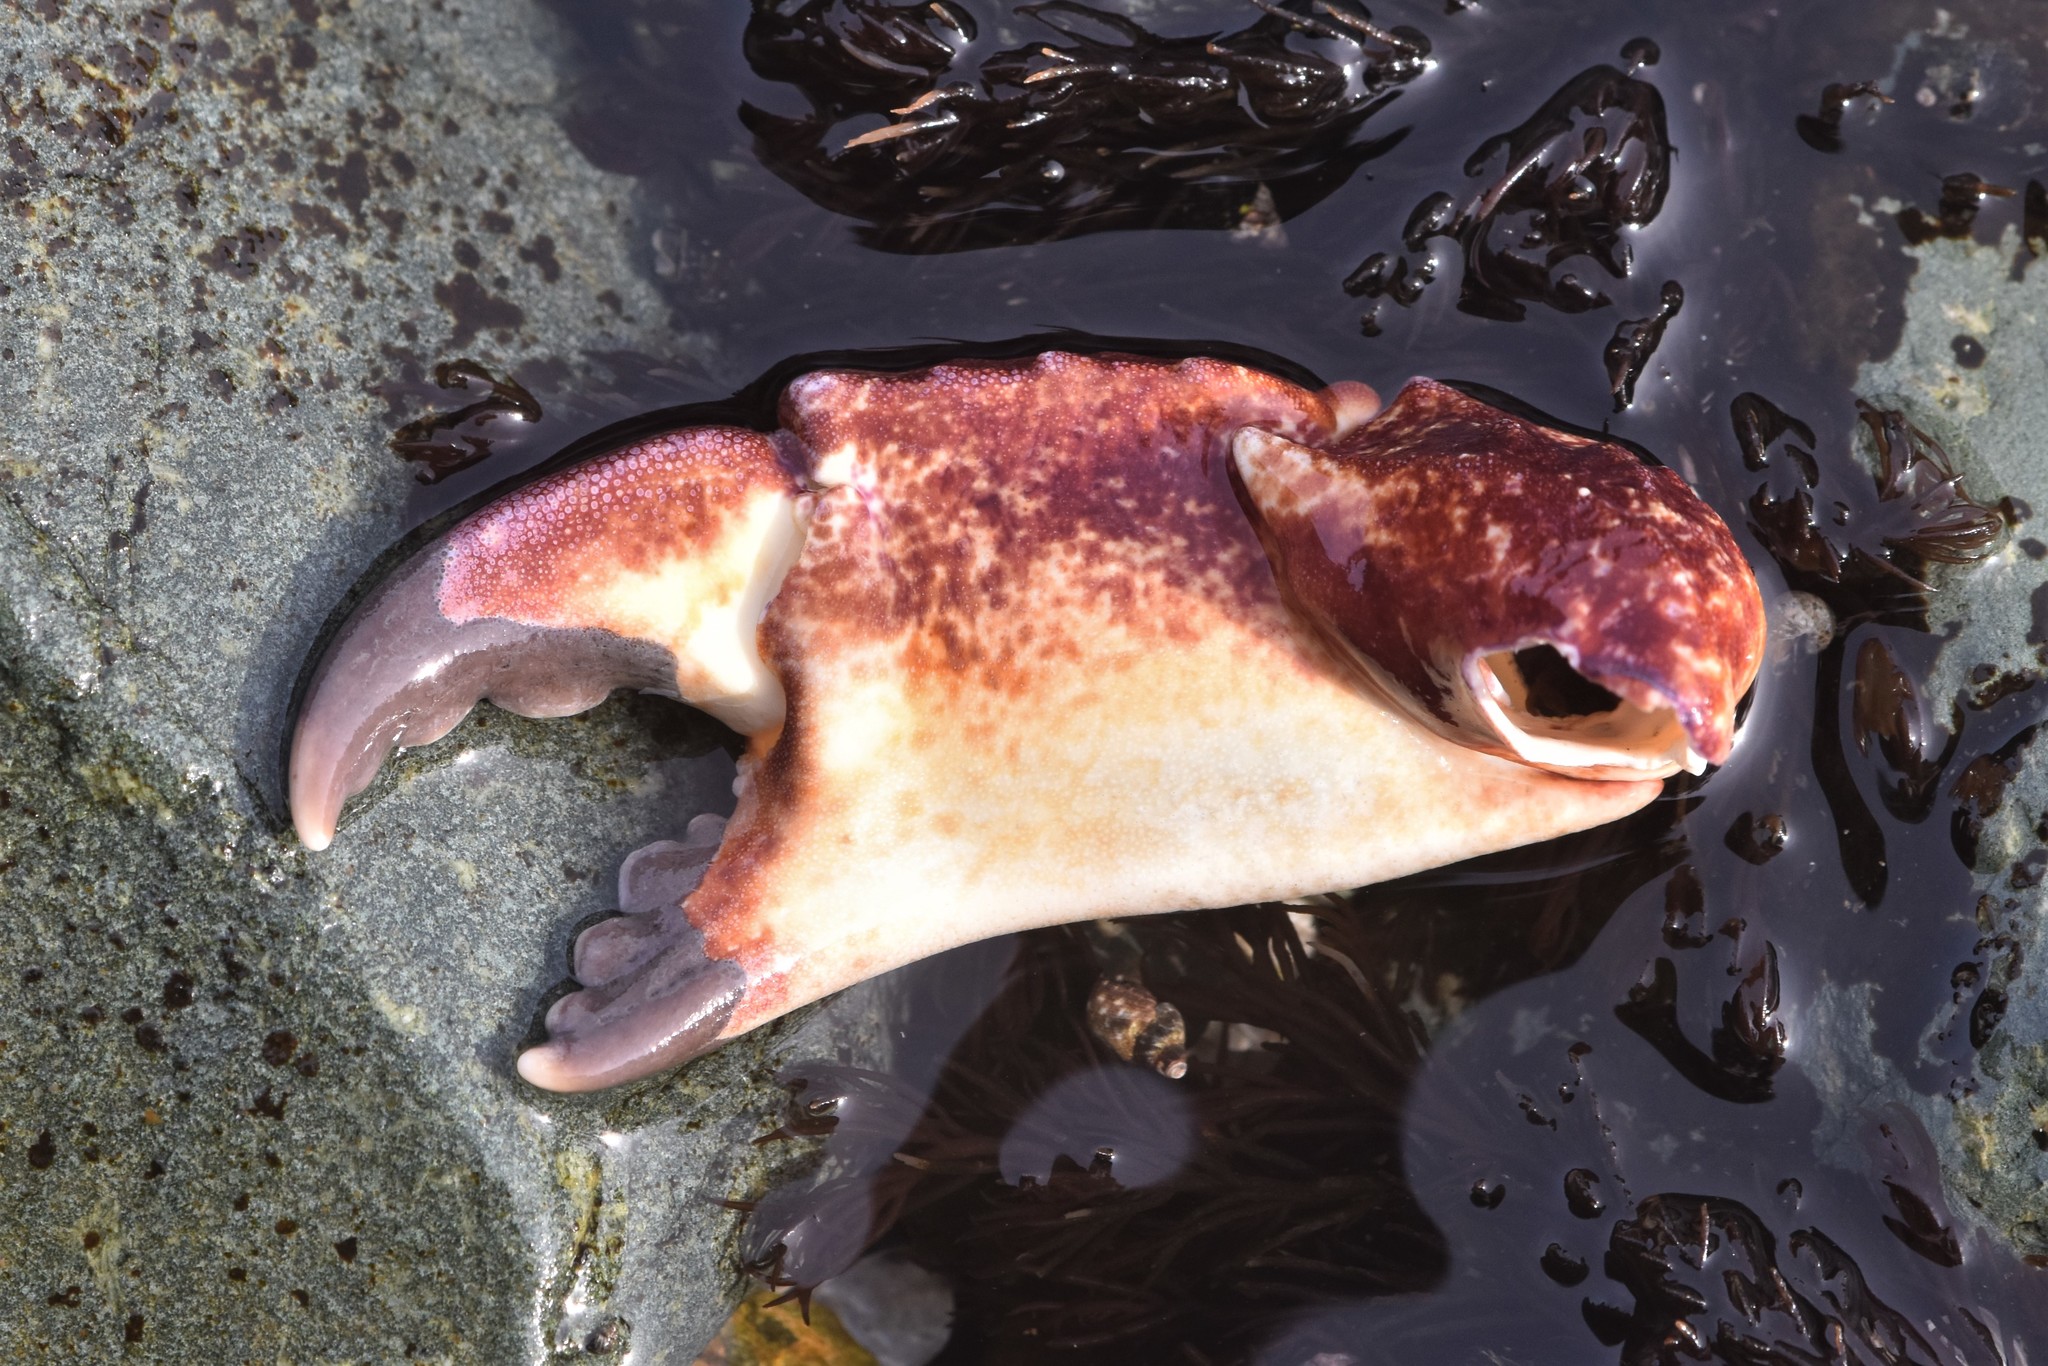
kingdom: Animalia
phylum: Arthropoda
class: Malacostraca
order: Decapoda
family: Cancridae
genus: Cancer
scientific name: Cancer productus
